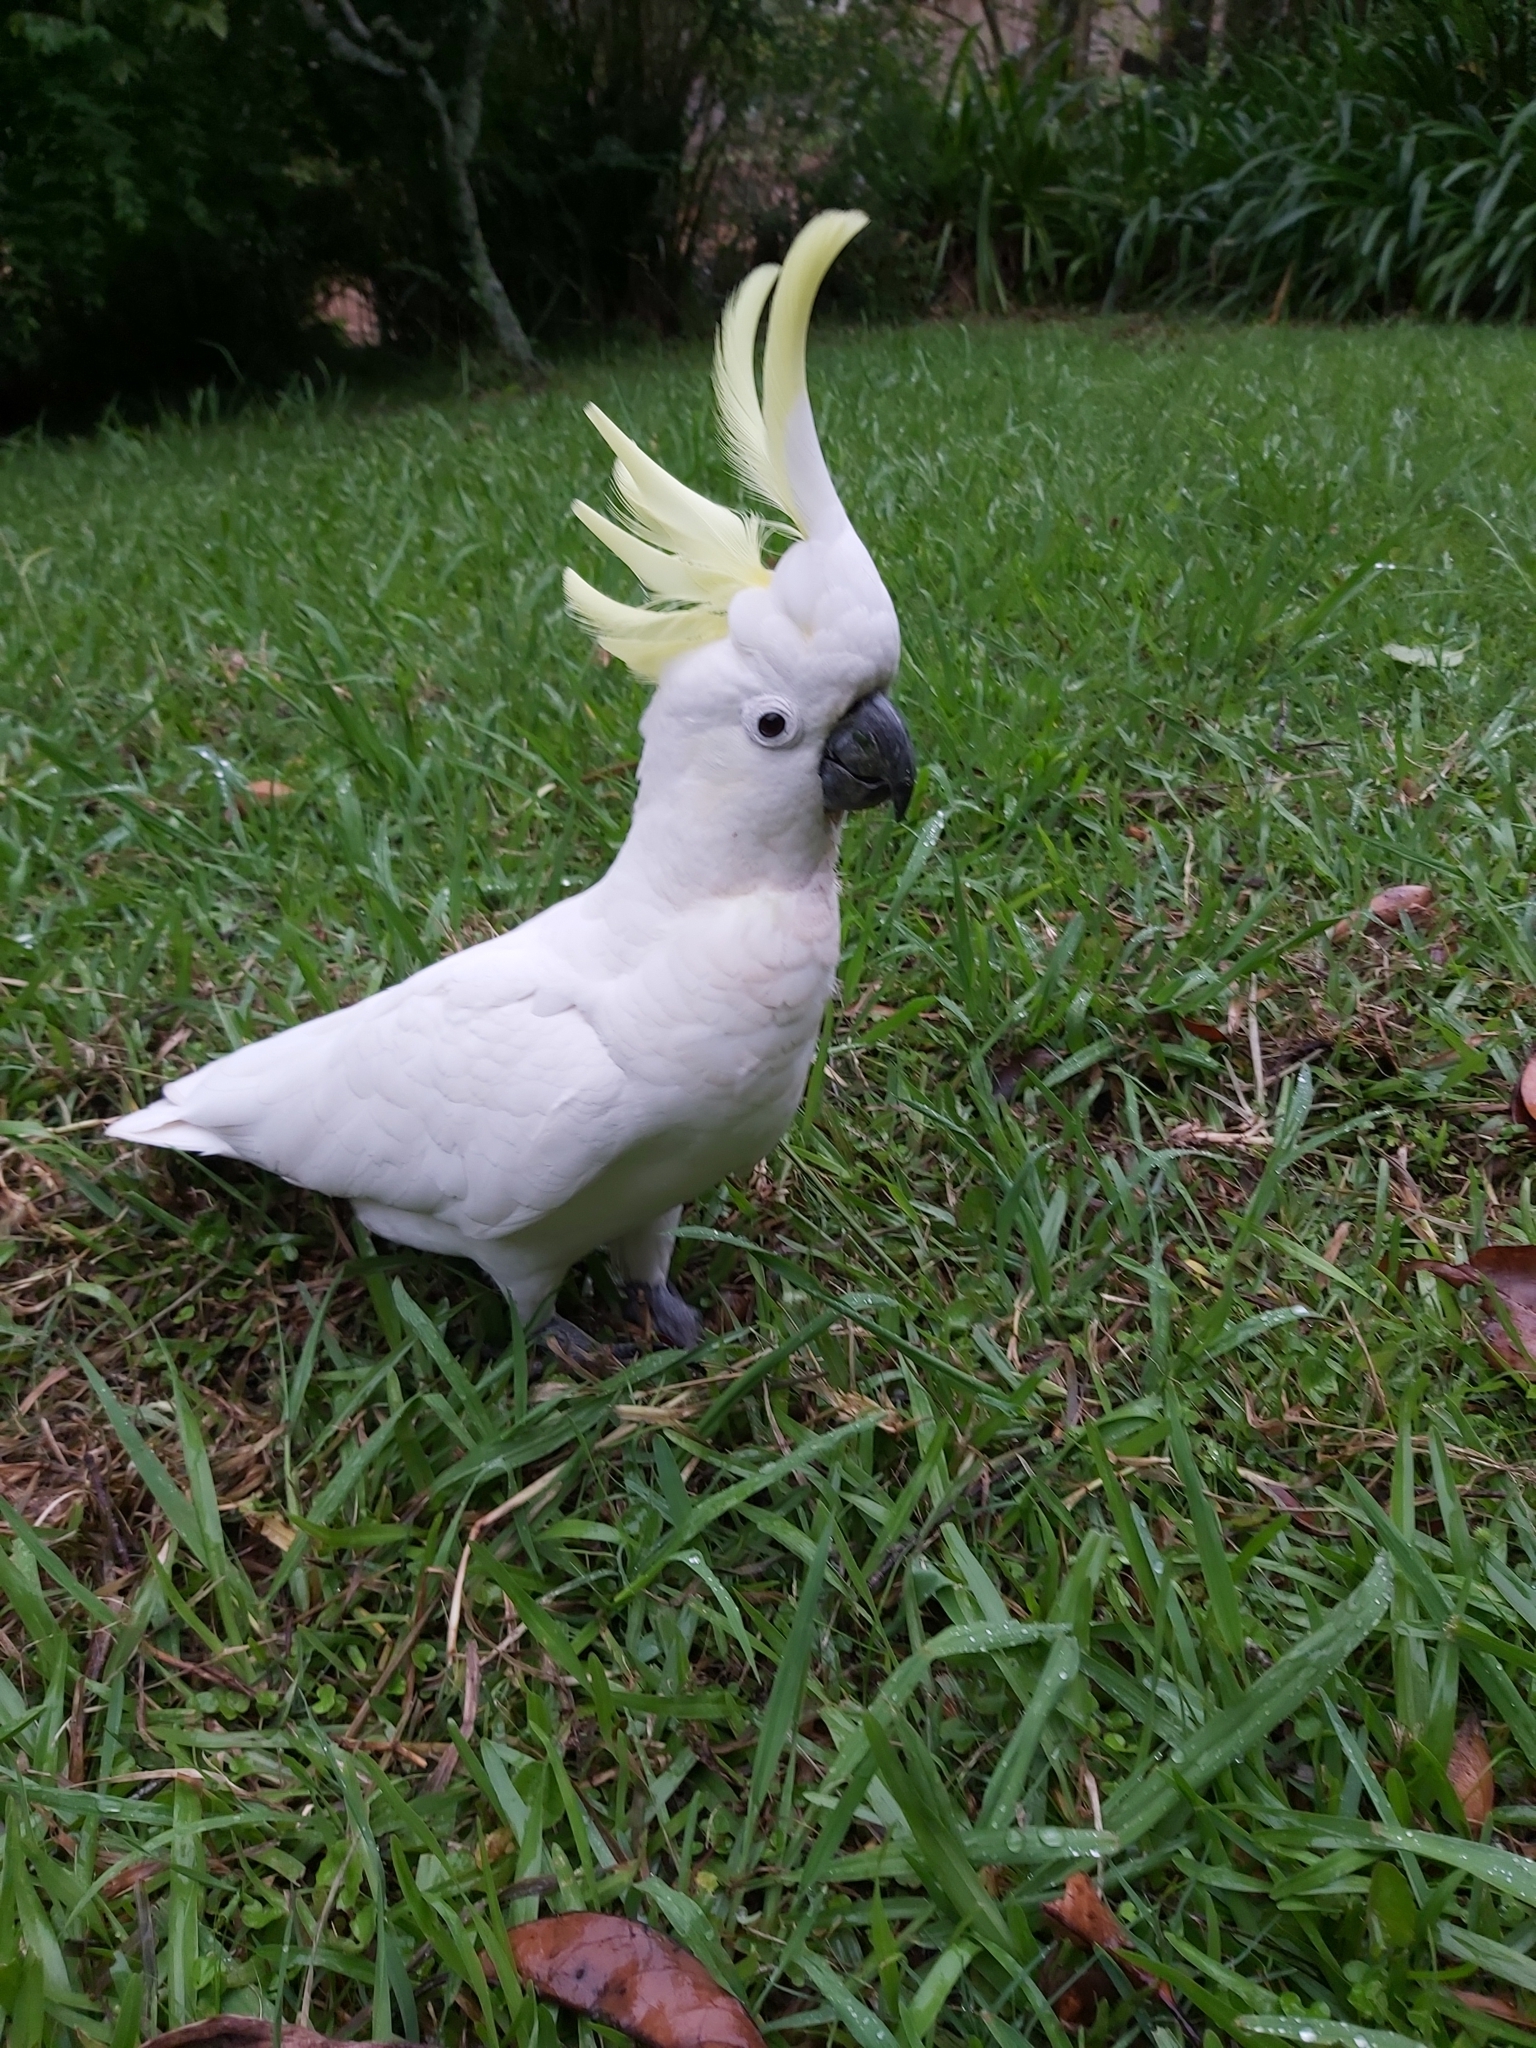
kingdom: Animalia
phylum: Chordata
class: Aves
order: Psittaciformes
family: Psittacidae
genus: Cacatua
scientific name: Cacatua galerita
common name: Sulphur-crested cockatoo
